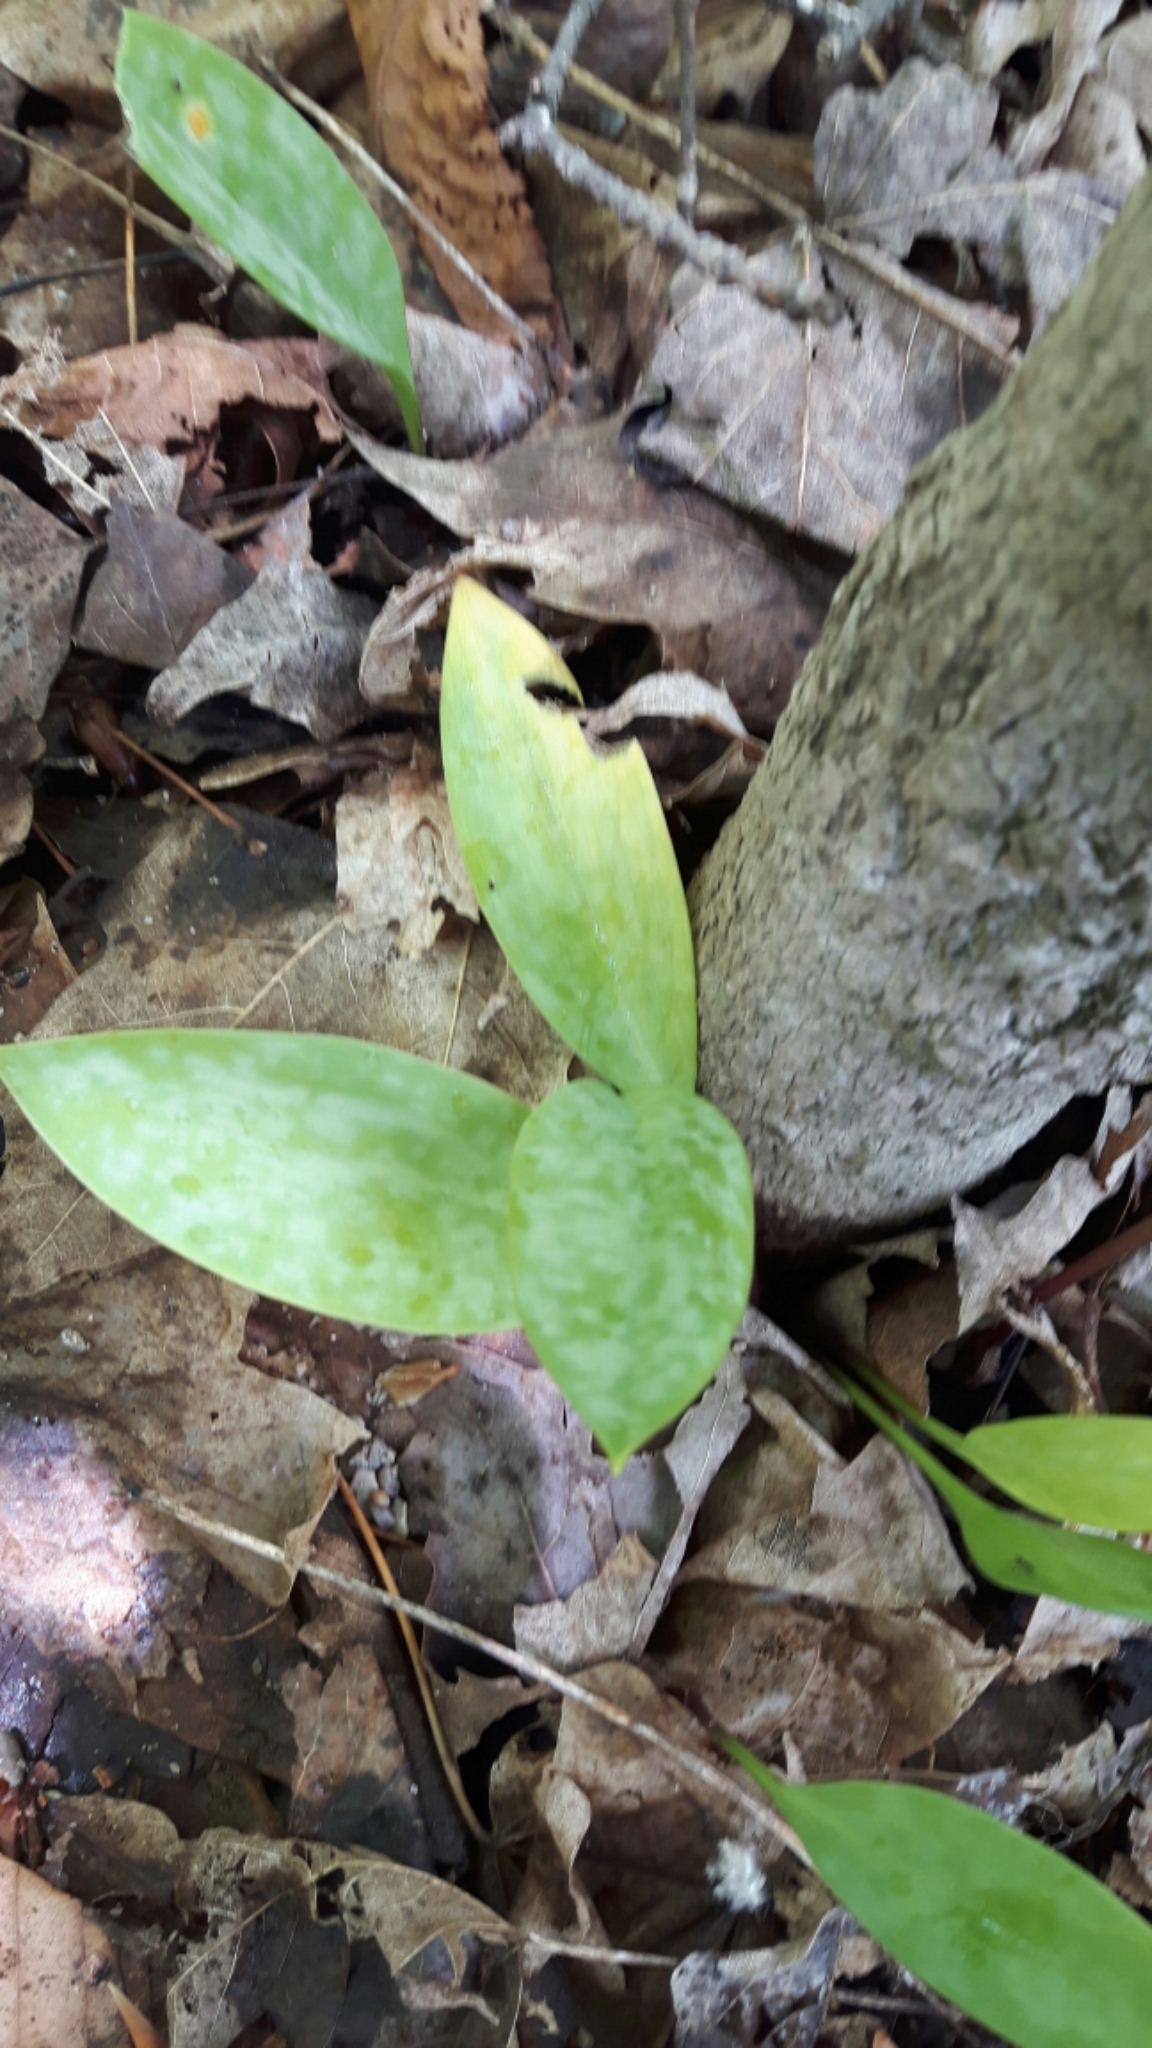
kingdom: Plantae
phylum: Tracheophyta
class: Liliopsida
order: Liliales
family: Liliaceae
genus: Erythronium
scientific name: Erythronium americanum
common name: Yellow adder's-tongue
